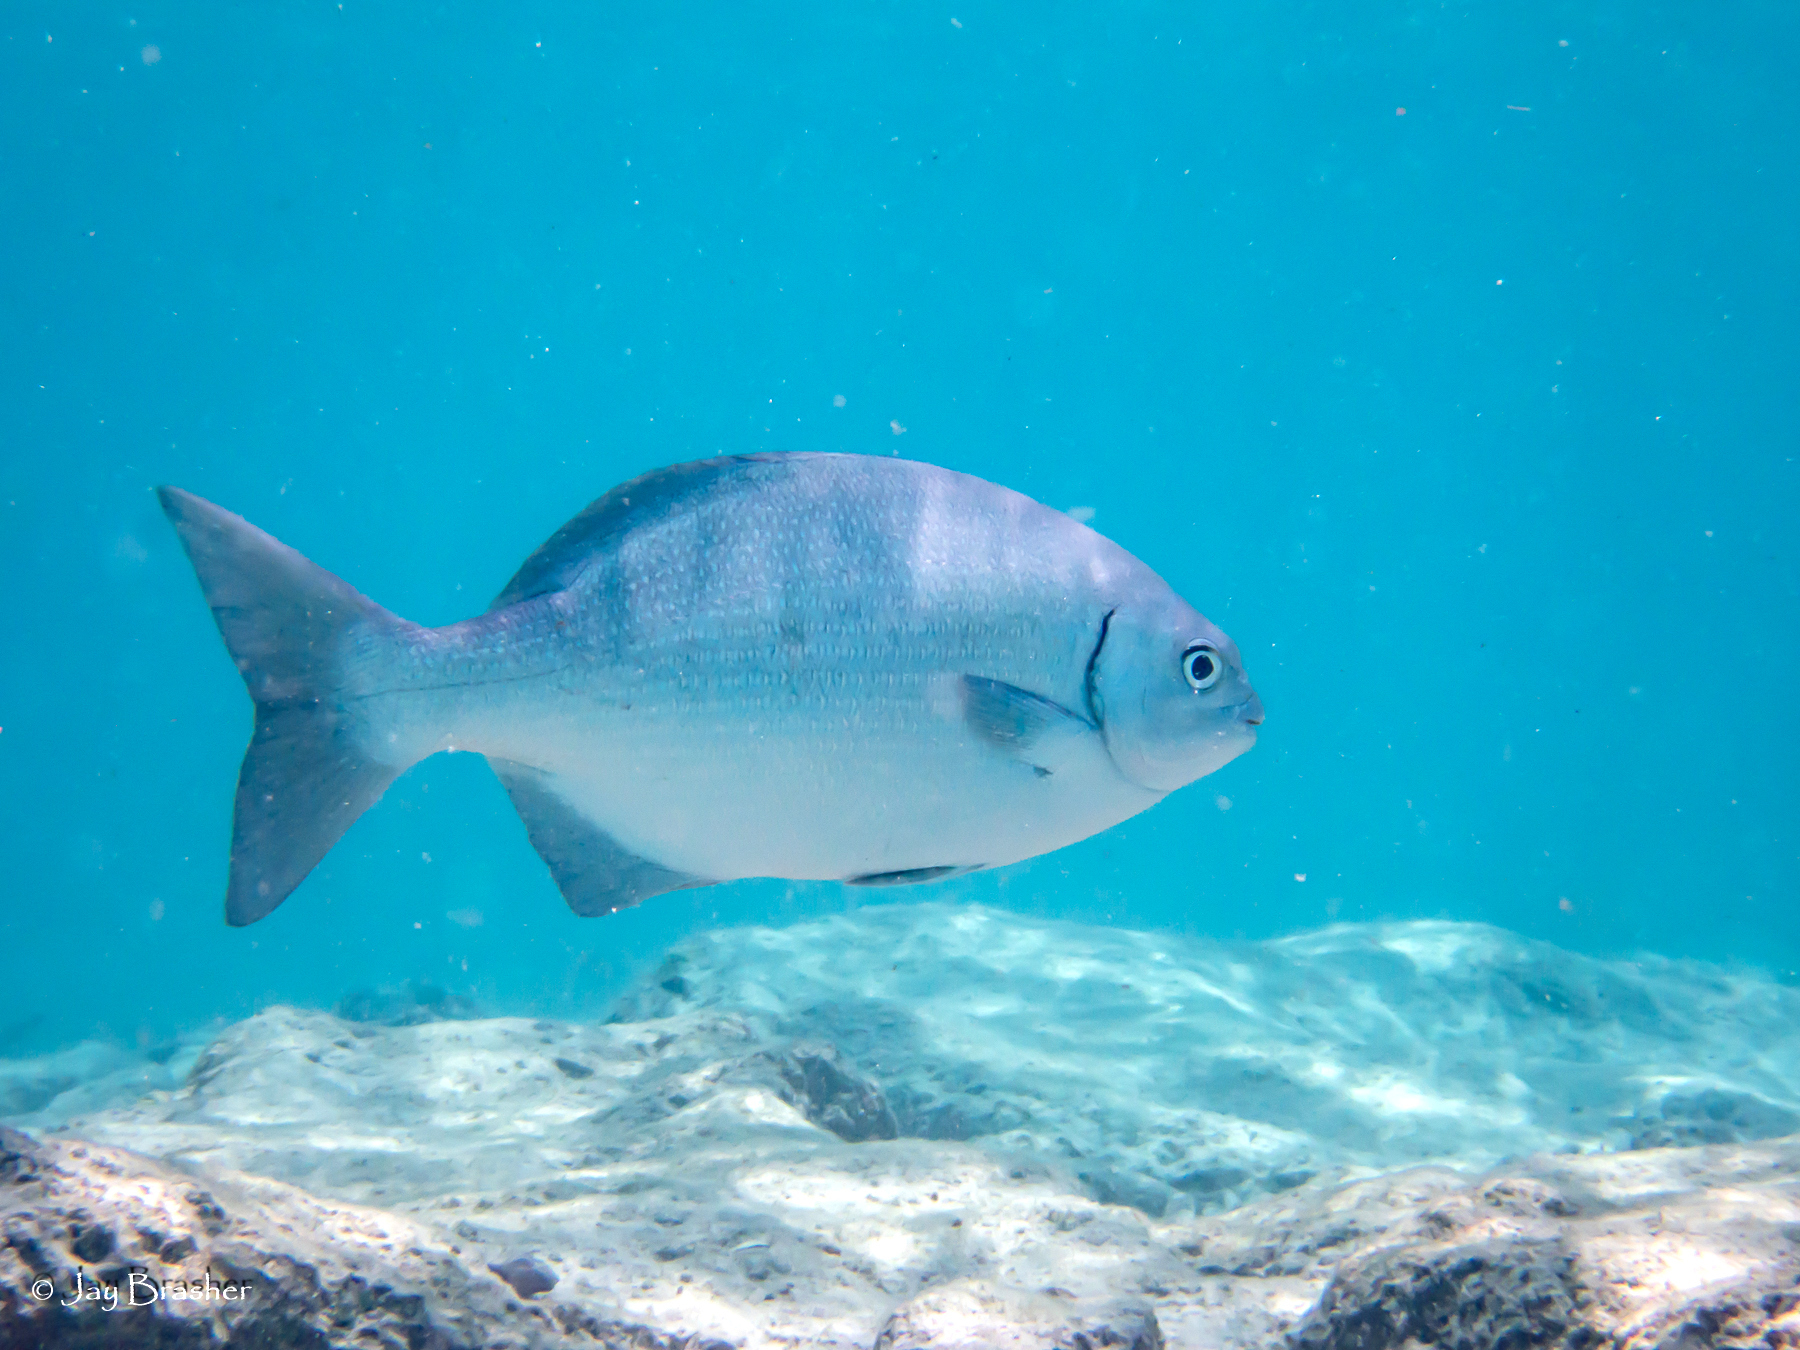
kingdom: Animalia
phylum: Chordata
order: Perciformes
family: Kyphosidae
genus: Kyphosus
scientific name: Kyphosus sectatrix
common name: Bermuda chub
